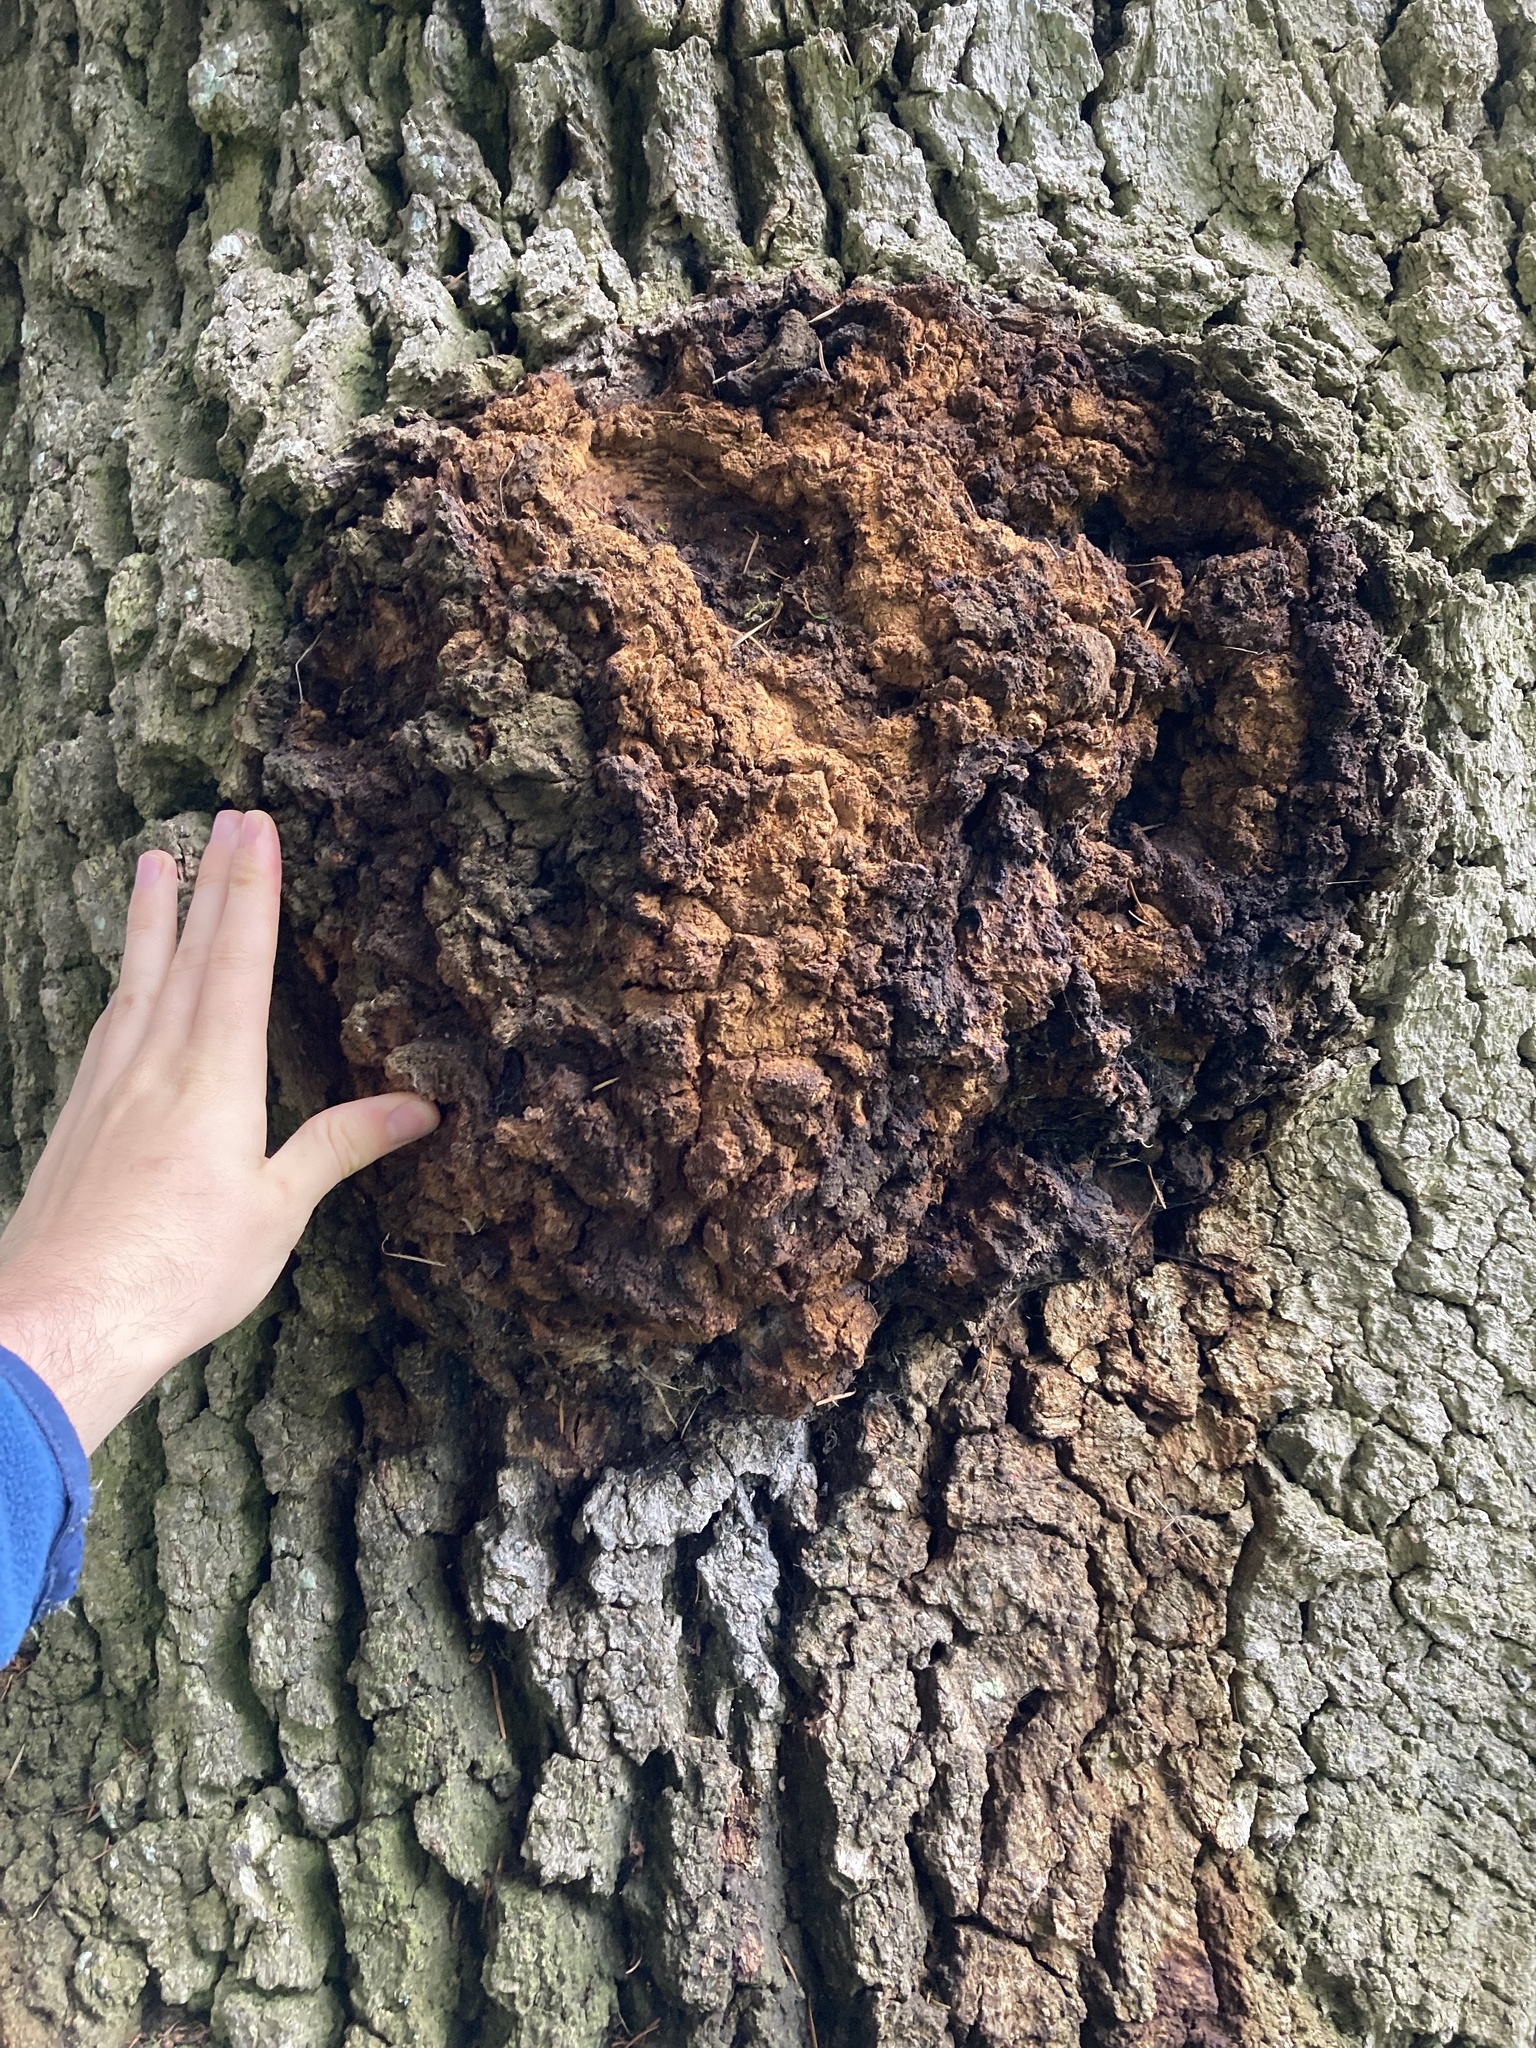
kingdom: Bacteria
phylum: Proteobacteria
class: Alphaproteobacteria
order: Rhizobiales
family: Rhizobiaceae
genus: Rhizobium
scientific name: Rhizobium Agrobacterium radiobacter
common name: Bacterial crown gall
